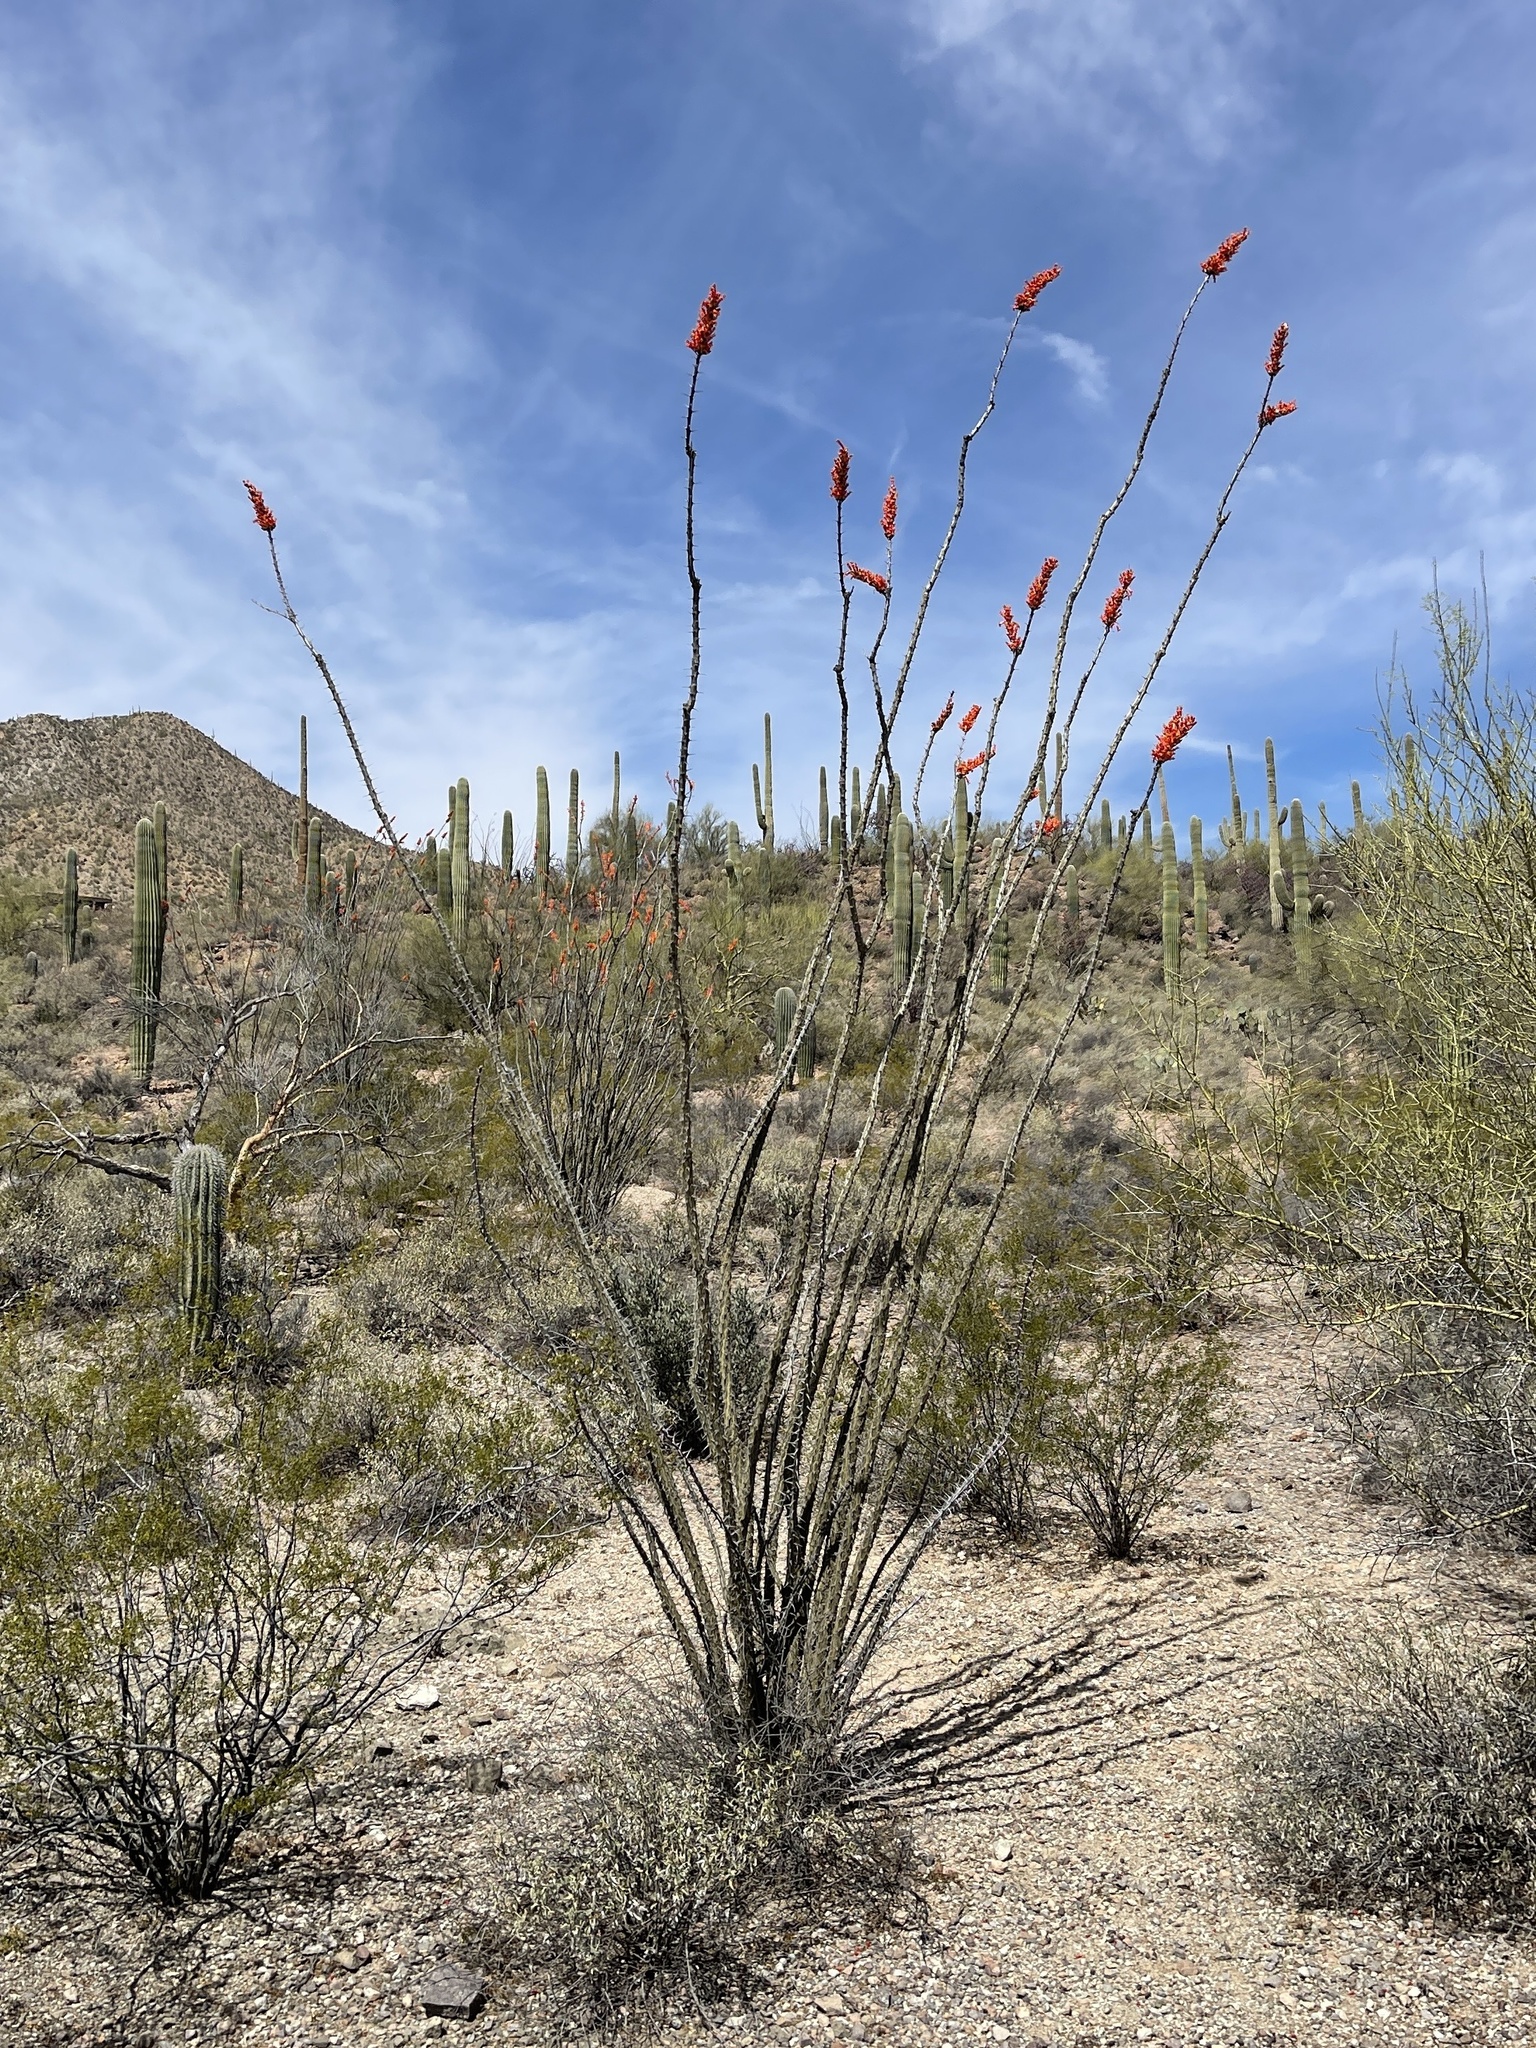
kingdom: Plantae
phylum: Tracheophyta
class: Magnoliopsida
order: Ericales
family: Fouquieriaceae
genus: Fouquieria
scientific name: Fouquieria splendens
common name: Vine-cactus
